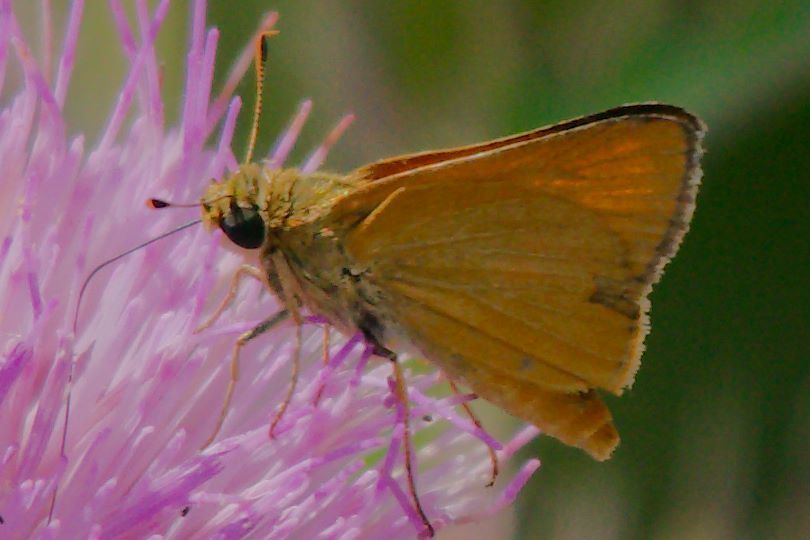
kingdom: Animalia
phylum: Arthropoda
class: Insecta
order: Lepidoptera
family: Hesperiidae
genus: Atrytone
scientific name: Atrytone delaware
